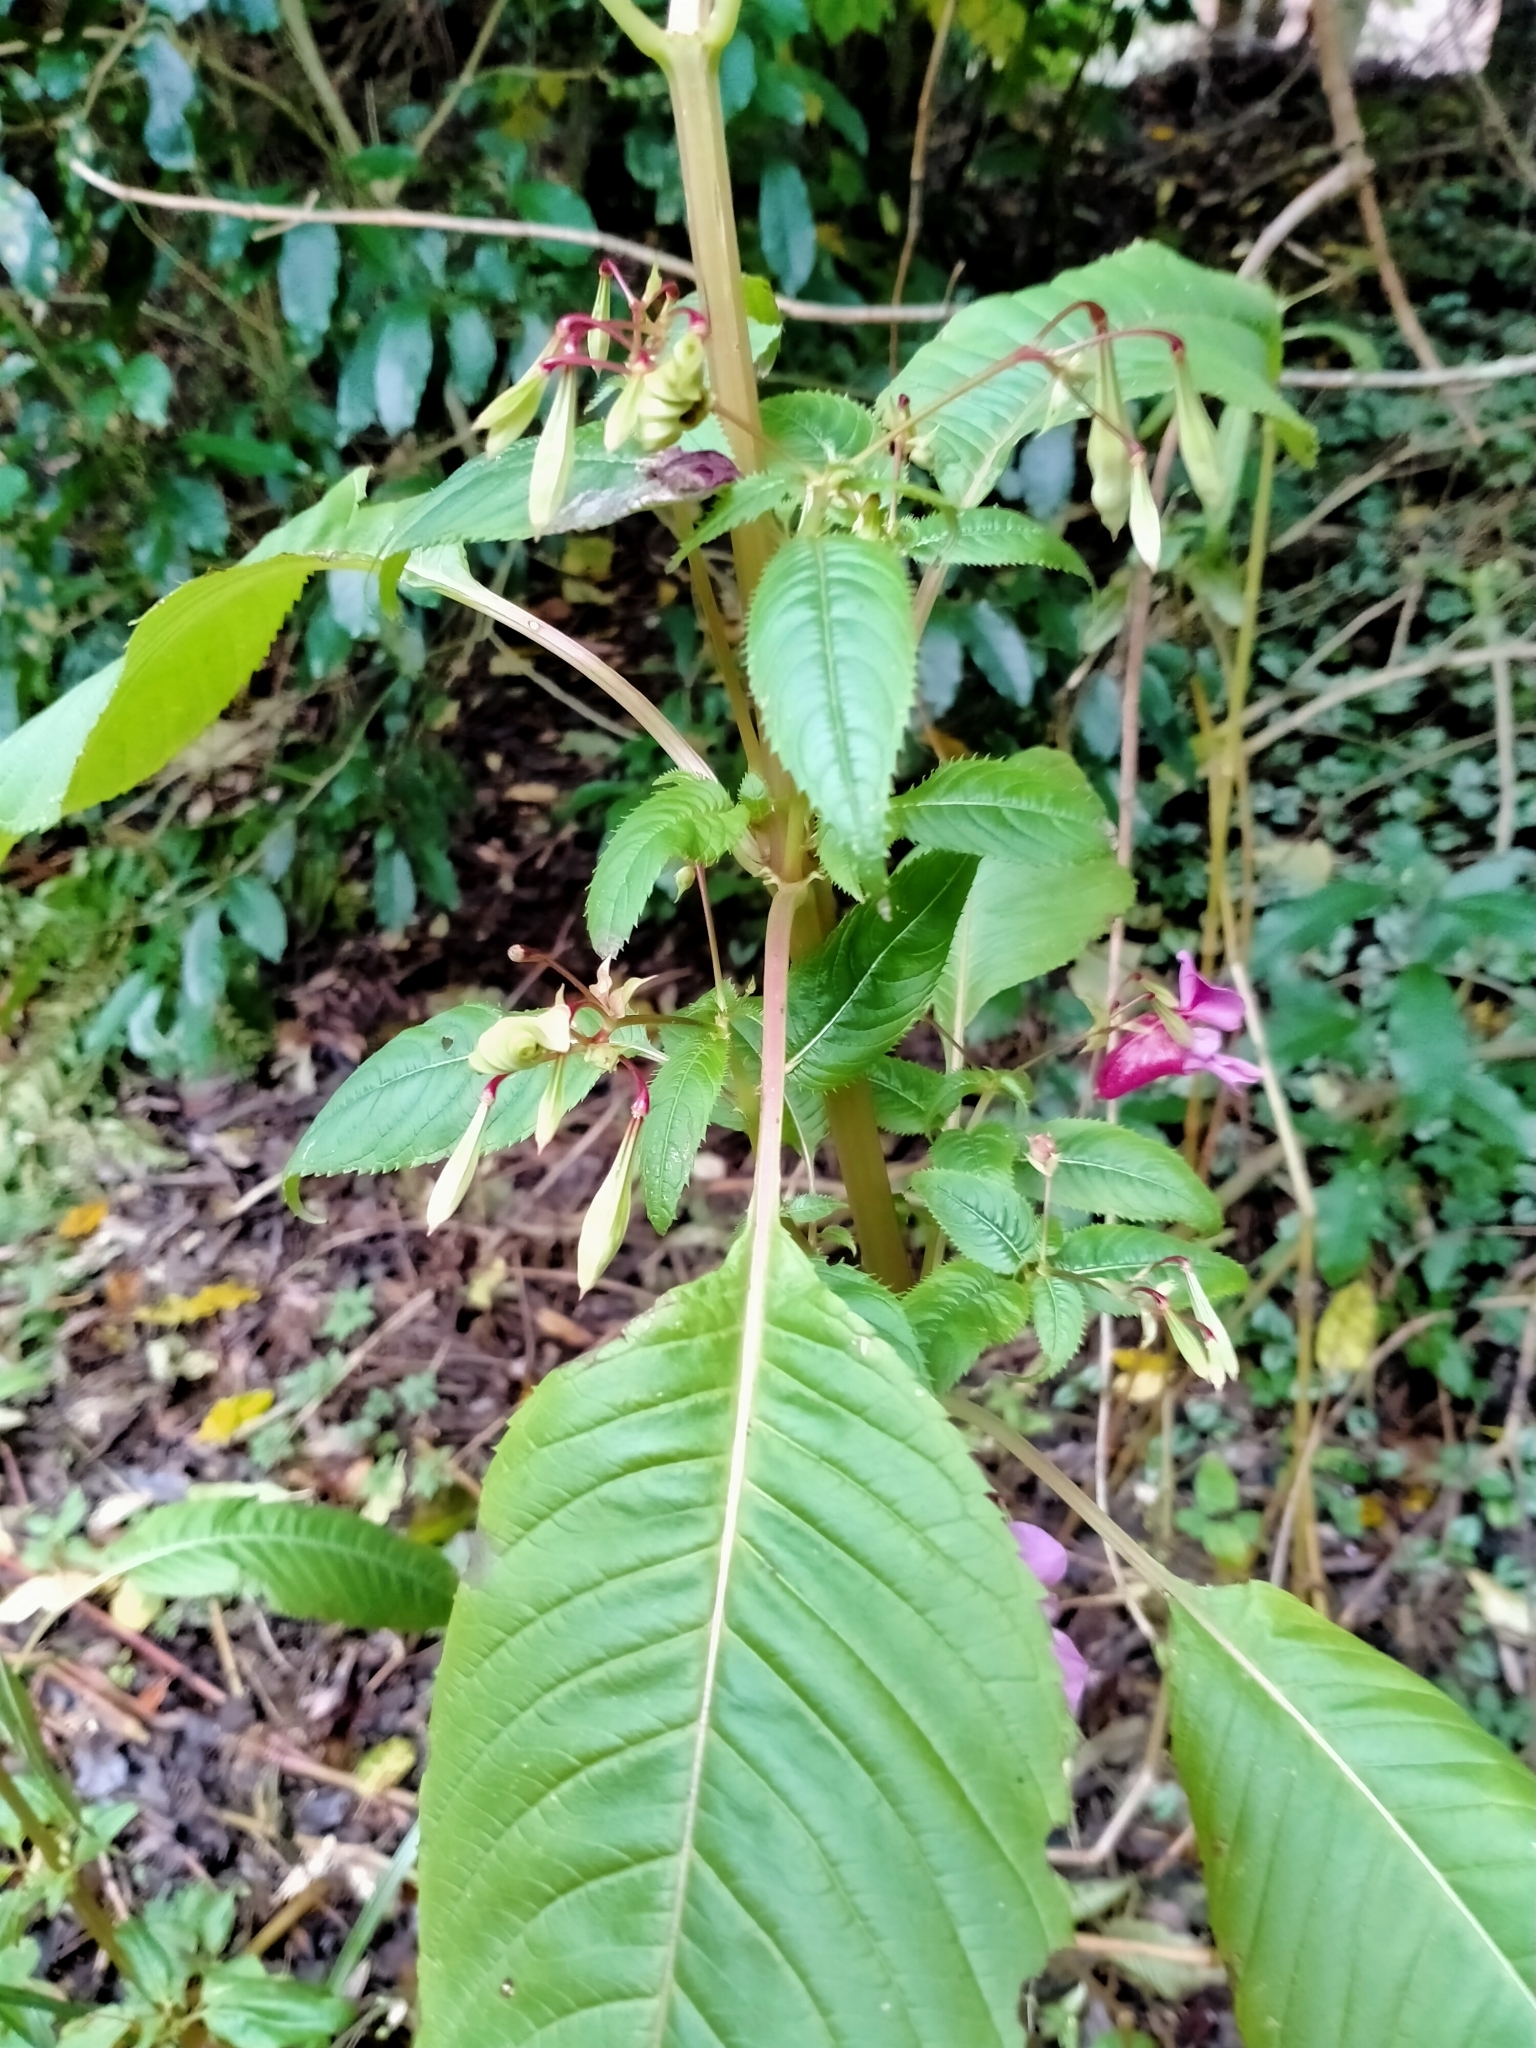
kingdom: Plantae
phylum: Tracheophyta
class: Magnoliopsida
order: Ericales
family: Balsaminaceae
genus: Impatiens
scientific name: Impatiens glandulifera
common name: Himalayan balsam
